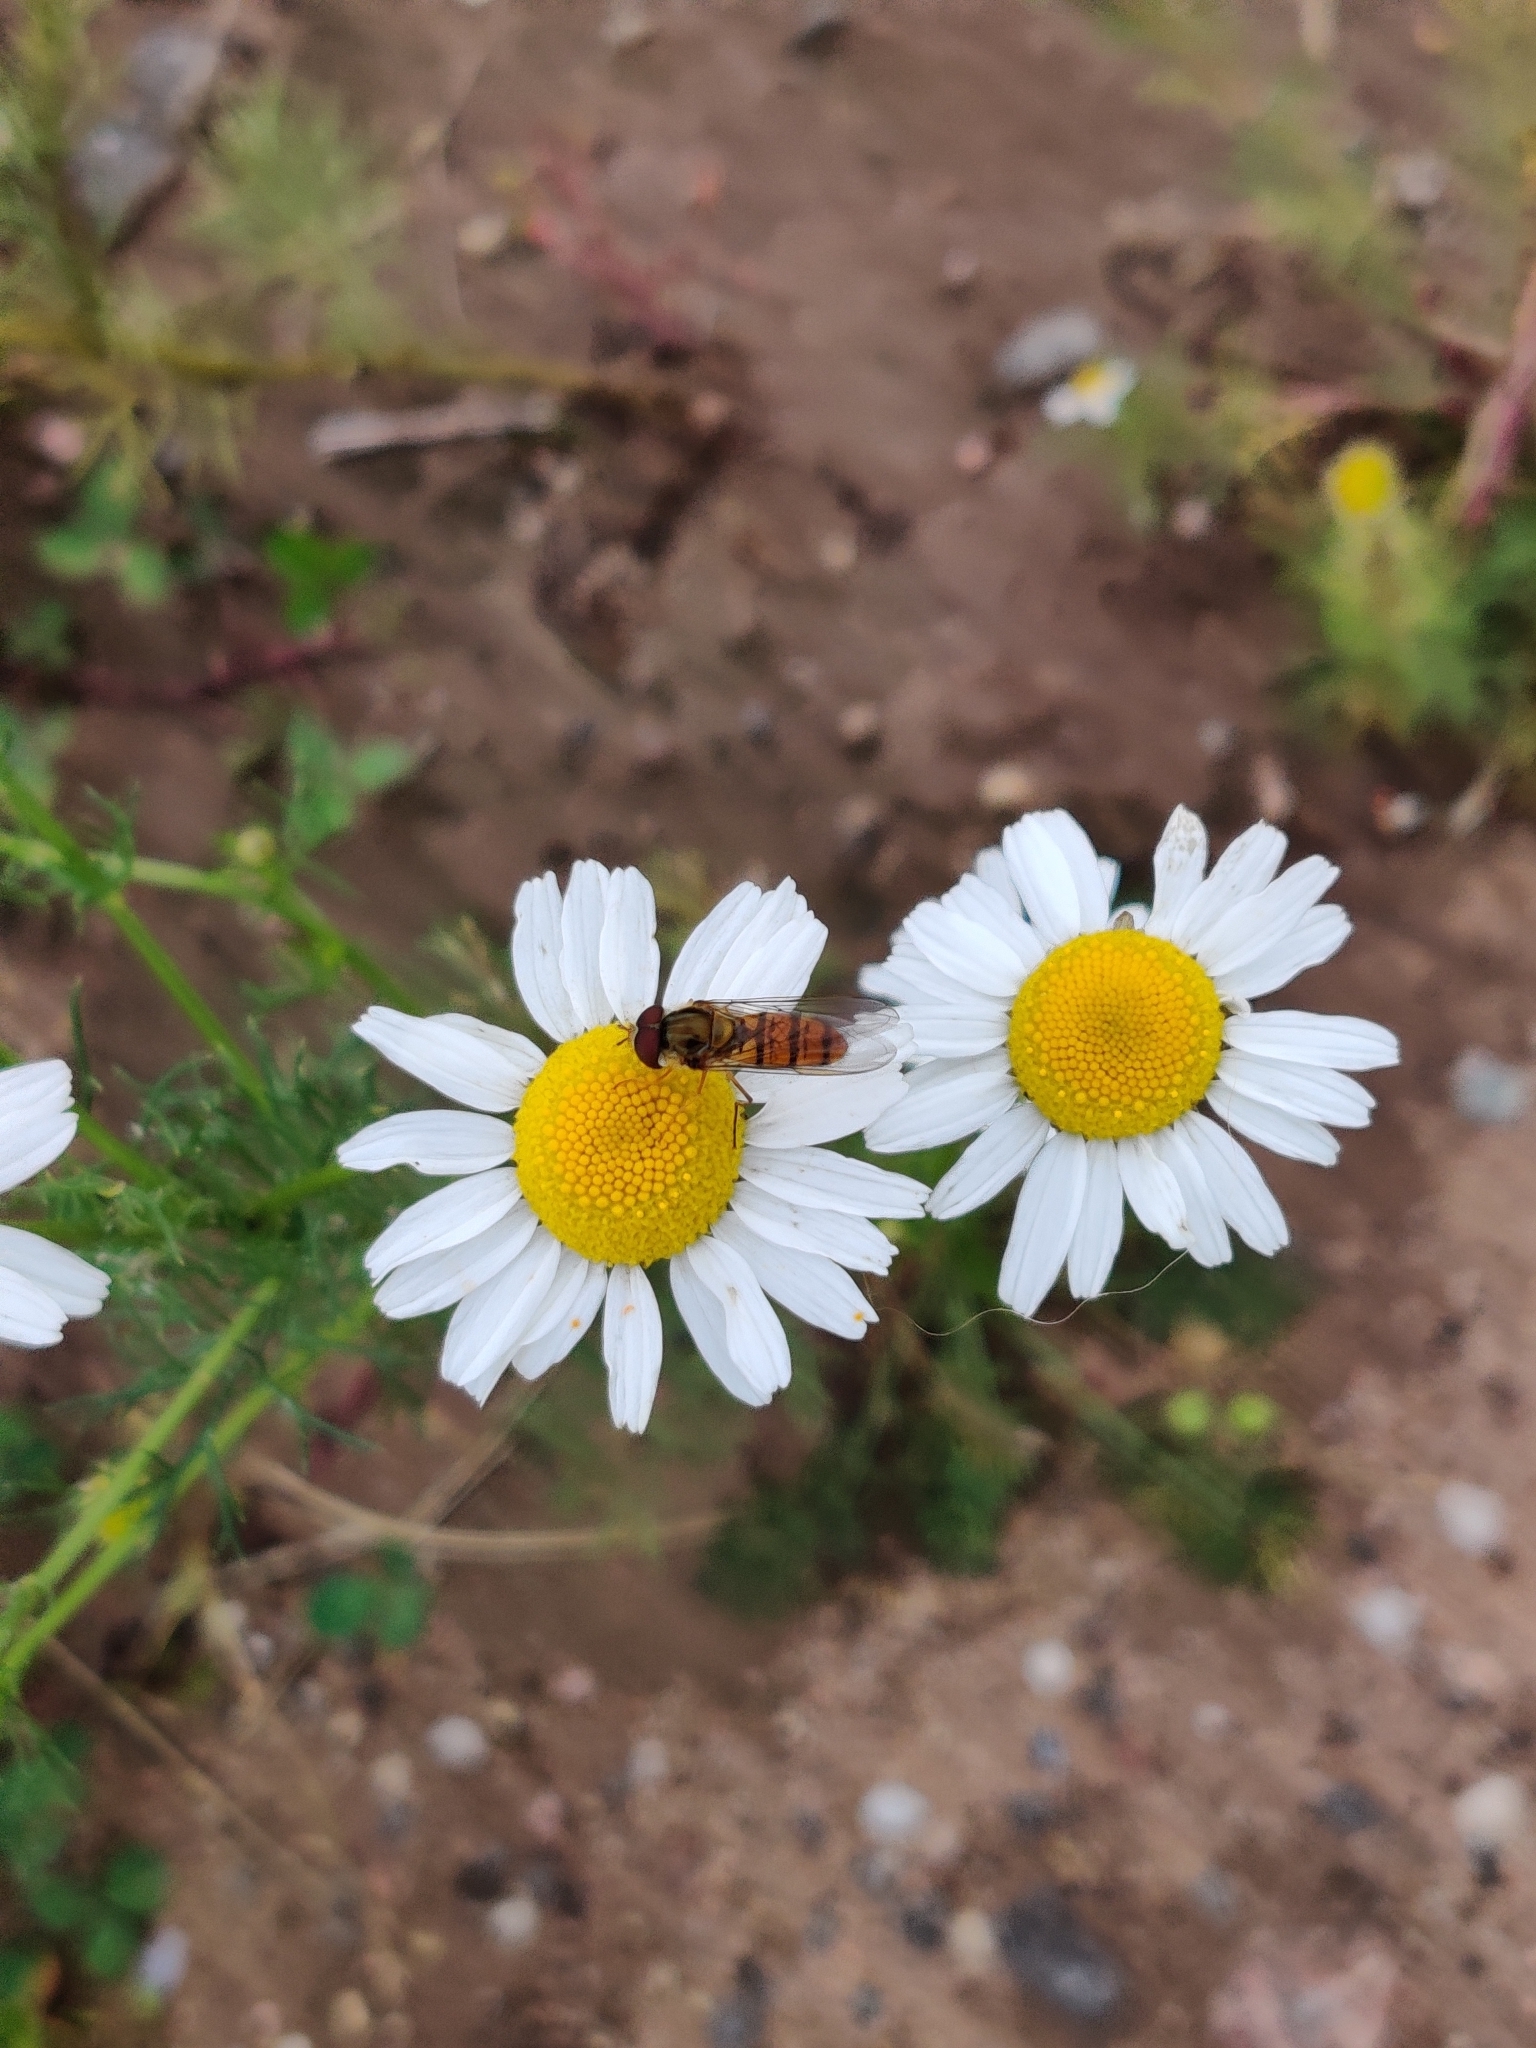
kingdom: Animalia
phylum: Arthropoda
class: Insecta
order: Diptera
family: Syrphidae
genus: Episyrphus
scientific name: Episyrphus balteatus
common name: Marmalade hoverfly
